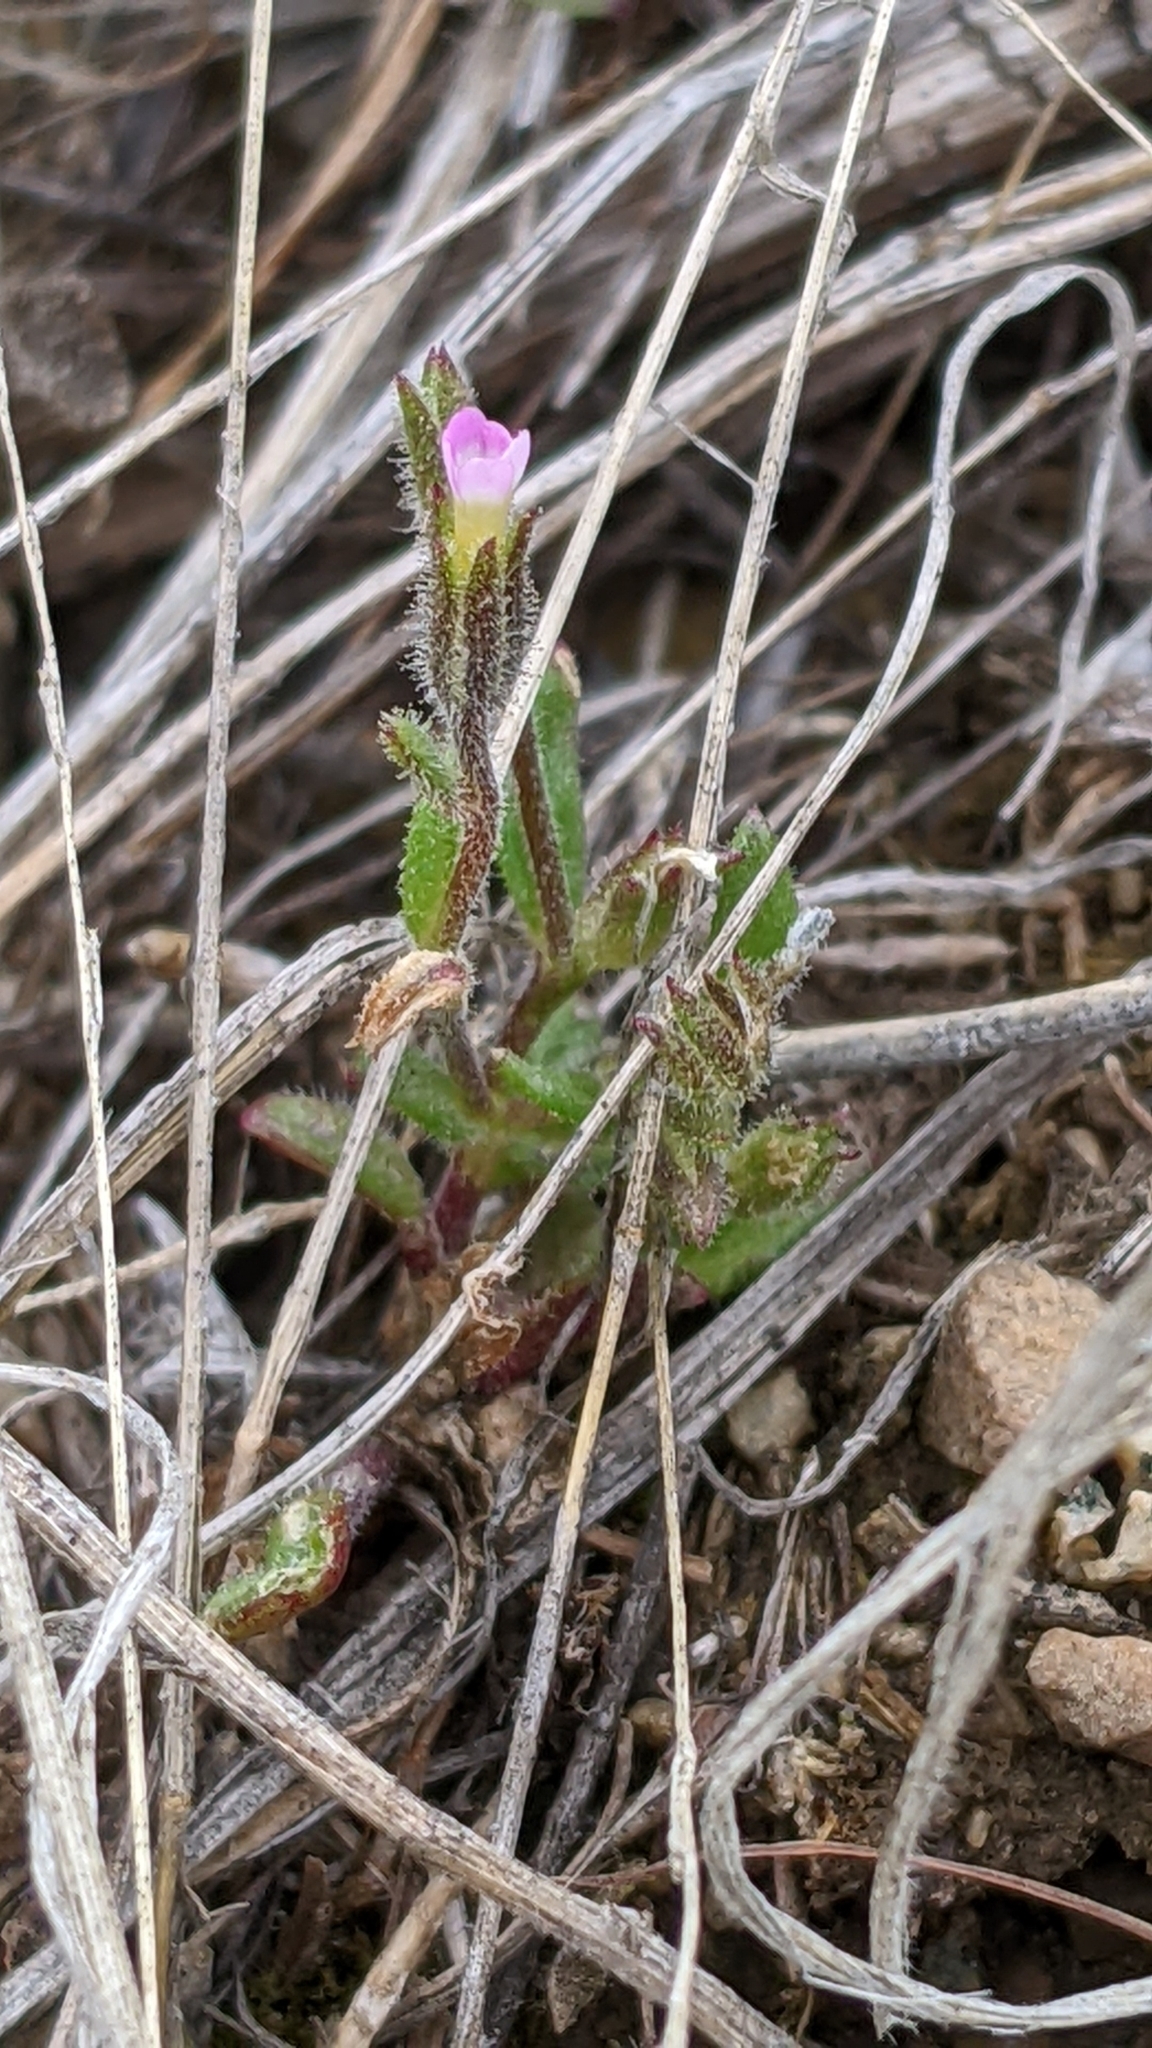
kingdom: Plantae
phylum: Tracheophyta
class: Magnoliopsida
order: Ericales
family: Polemoniaceae
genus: Phlox
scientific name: Phlox gracilis
